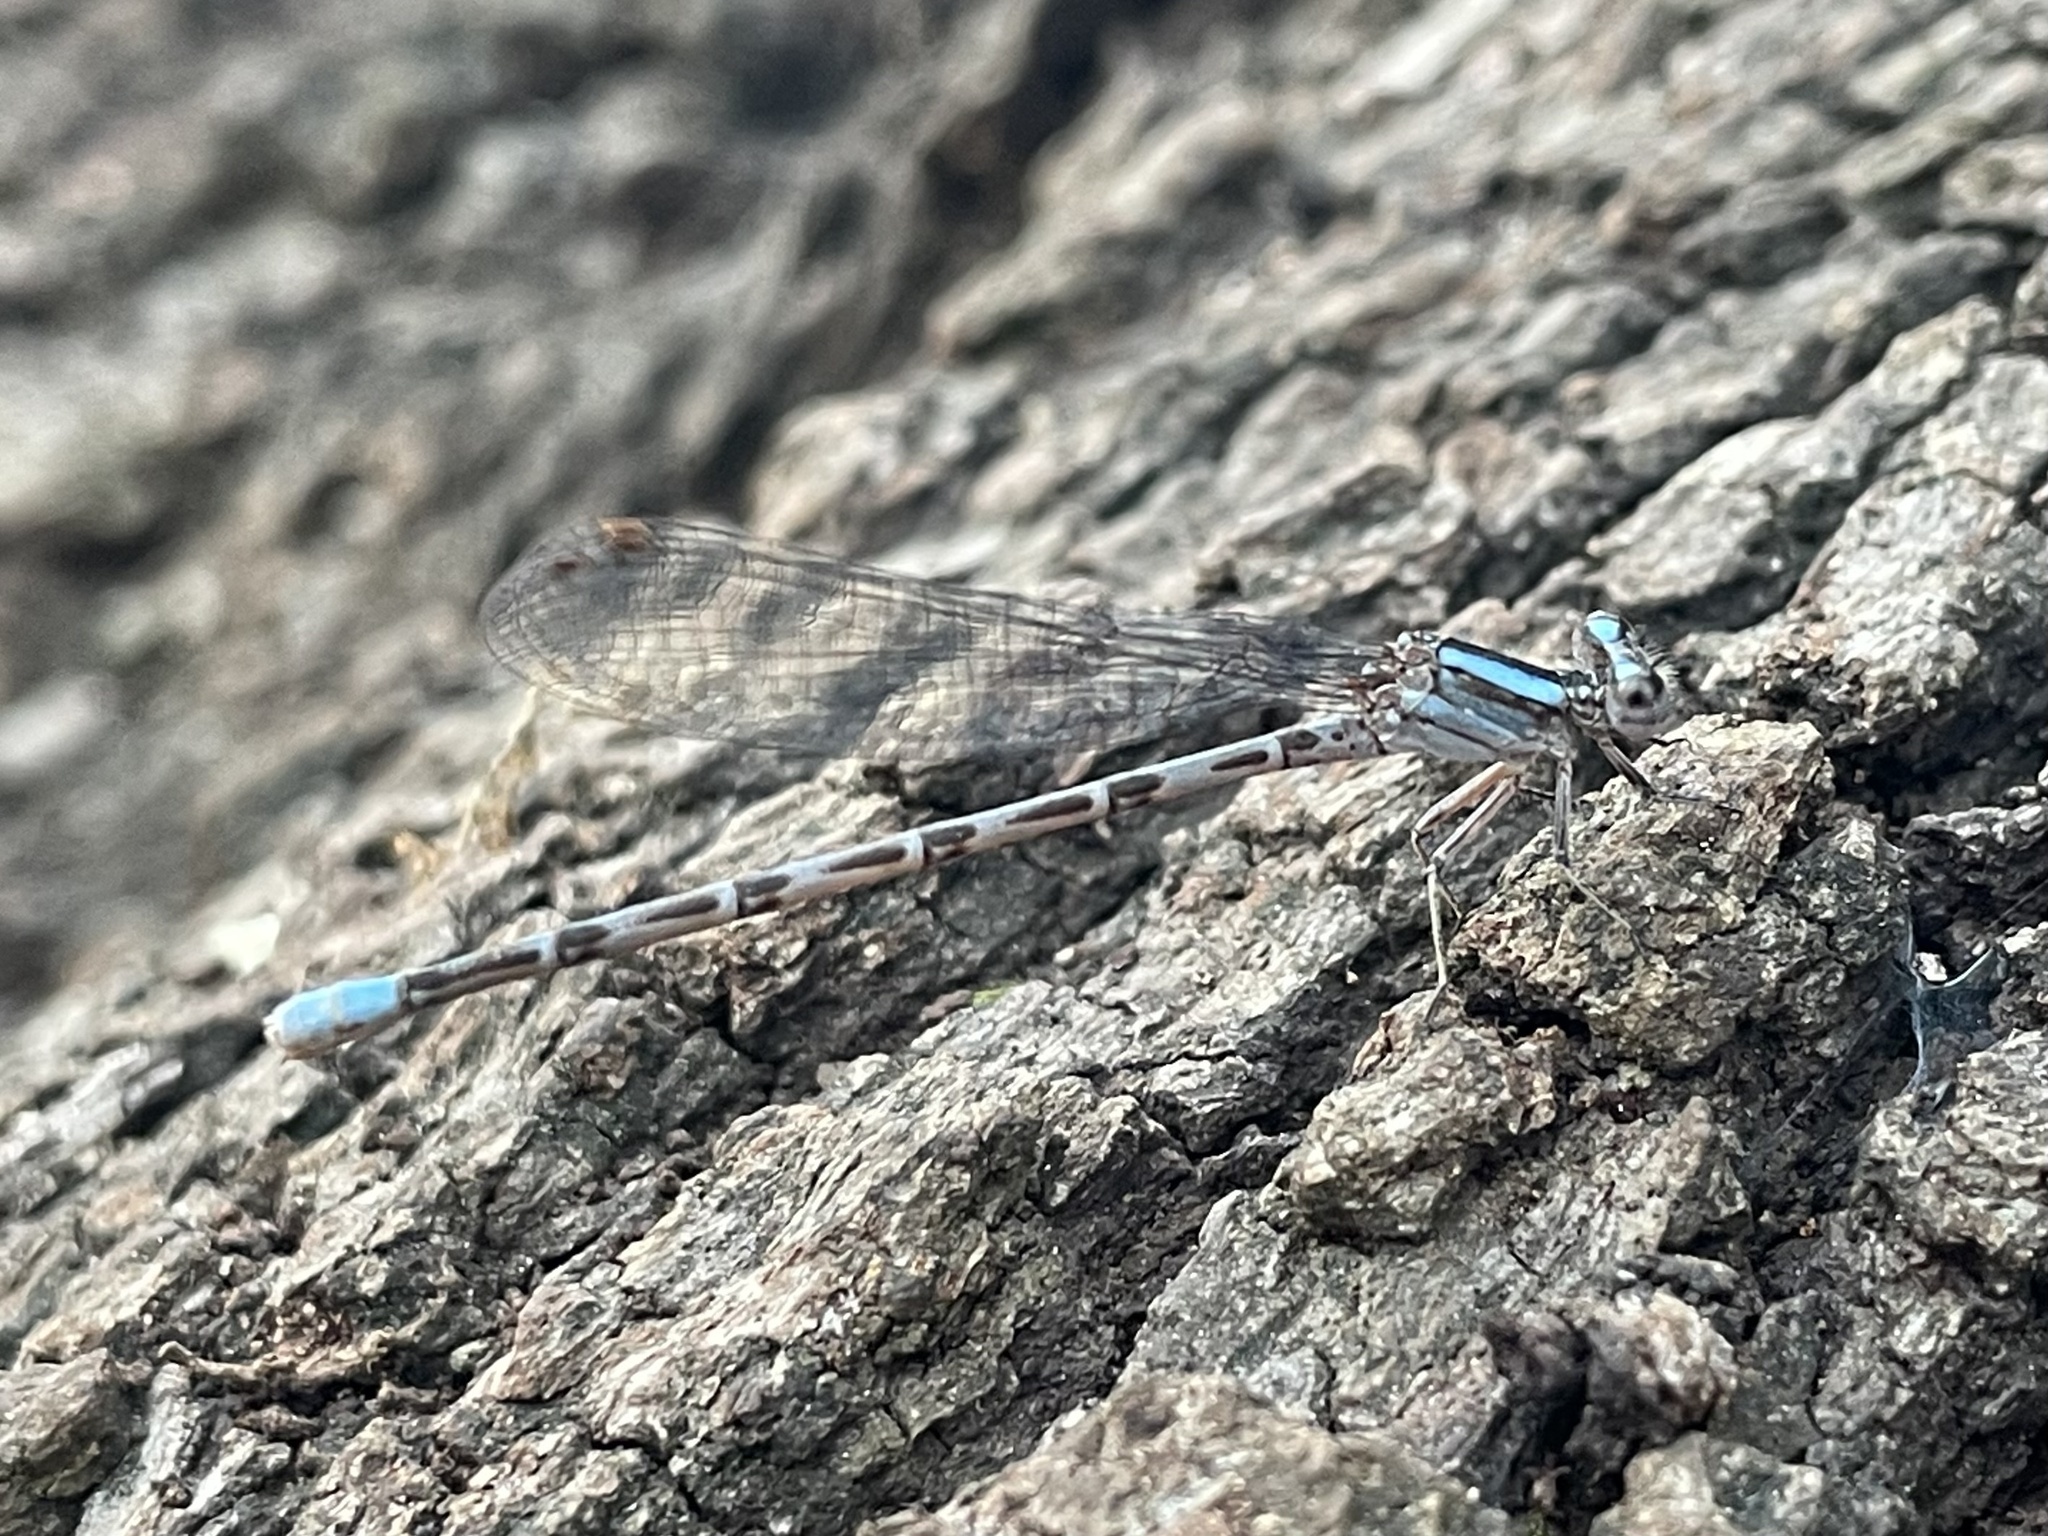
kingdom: Animalia
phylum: Arthropoda
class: Insecta
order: Odonata
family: Coenagrionidae
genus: Argia
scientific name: Argia immunda
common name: Kiowa dancer
